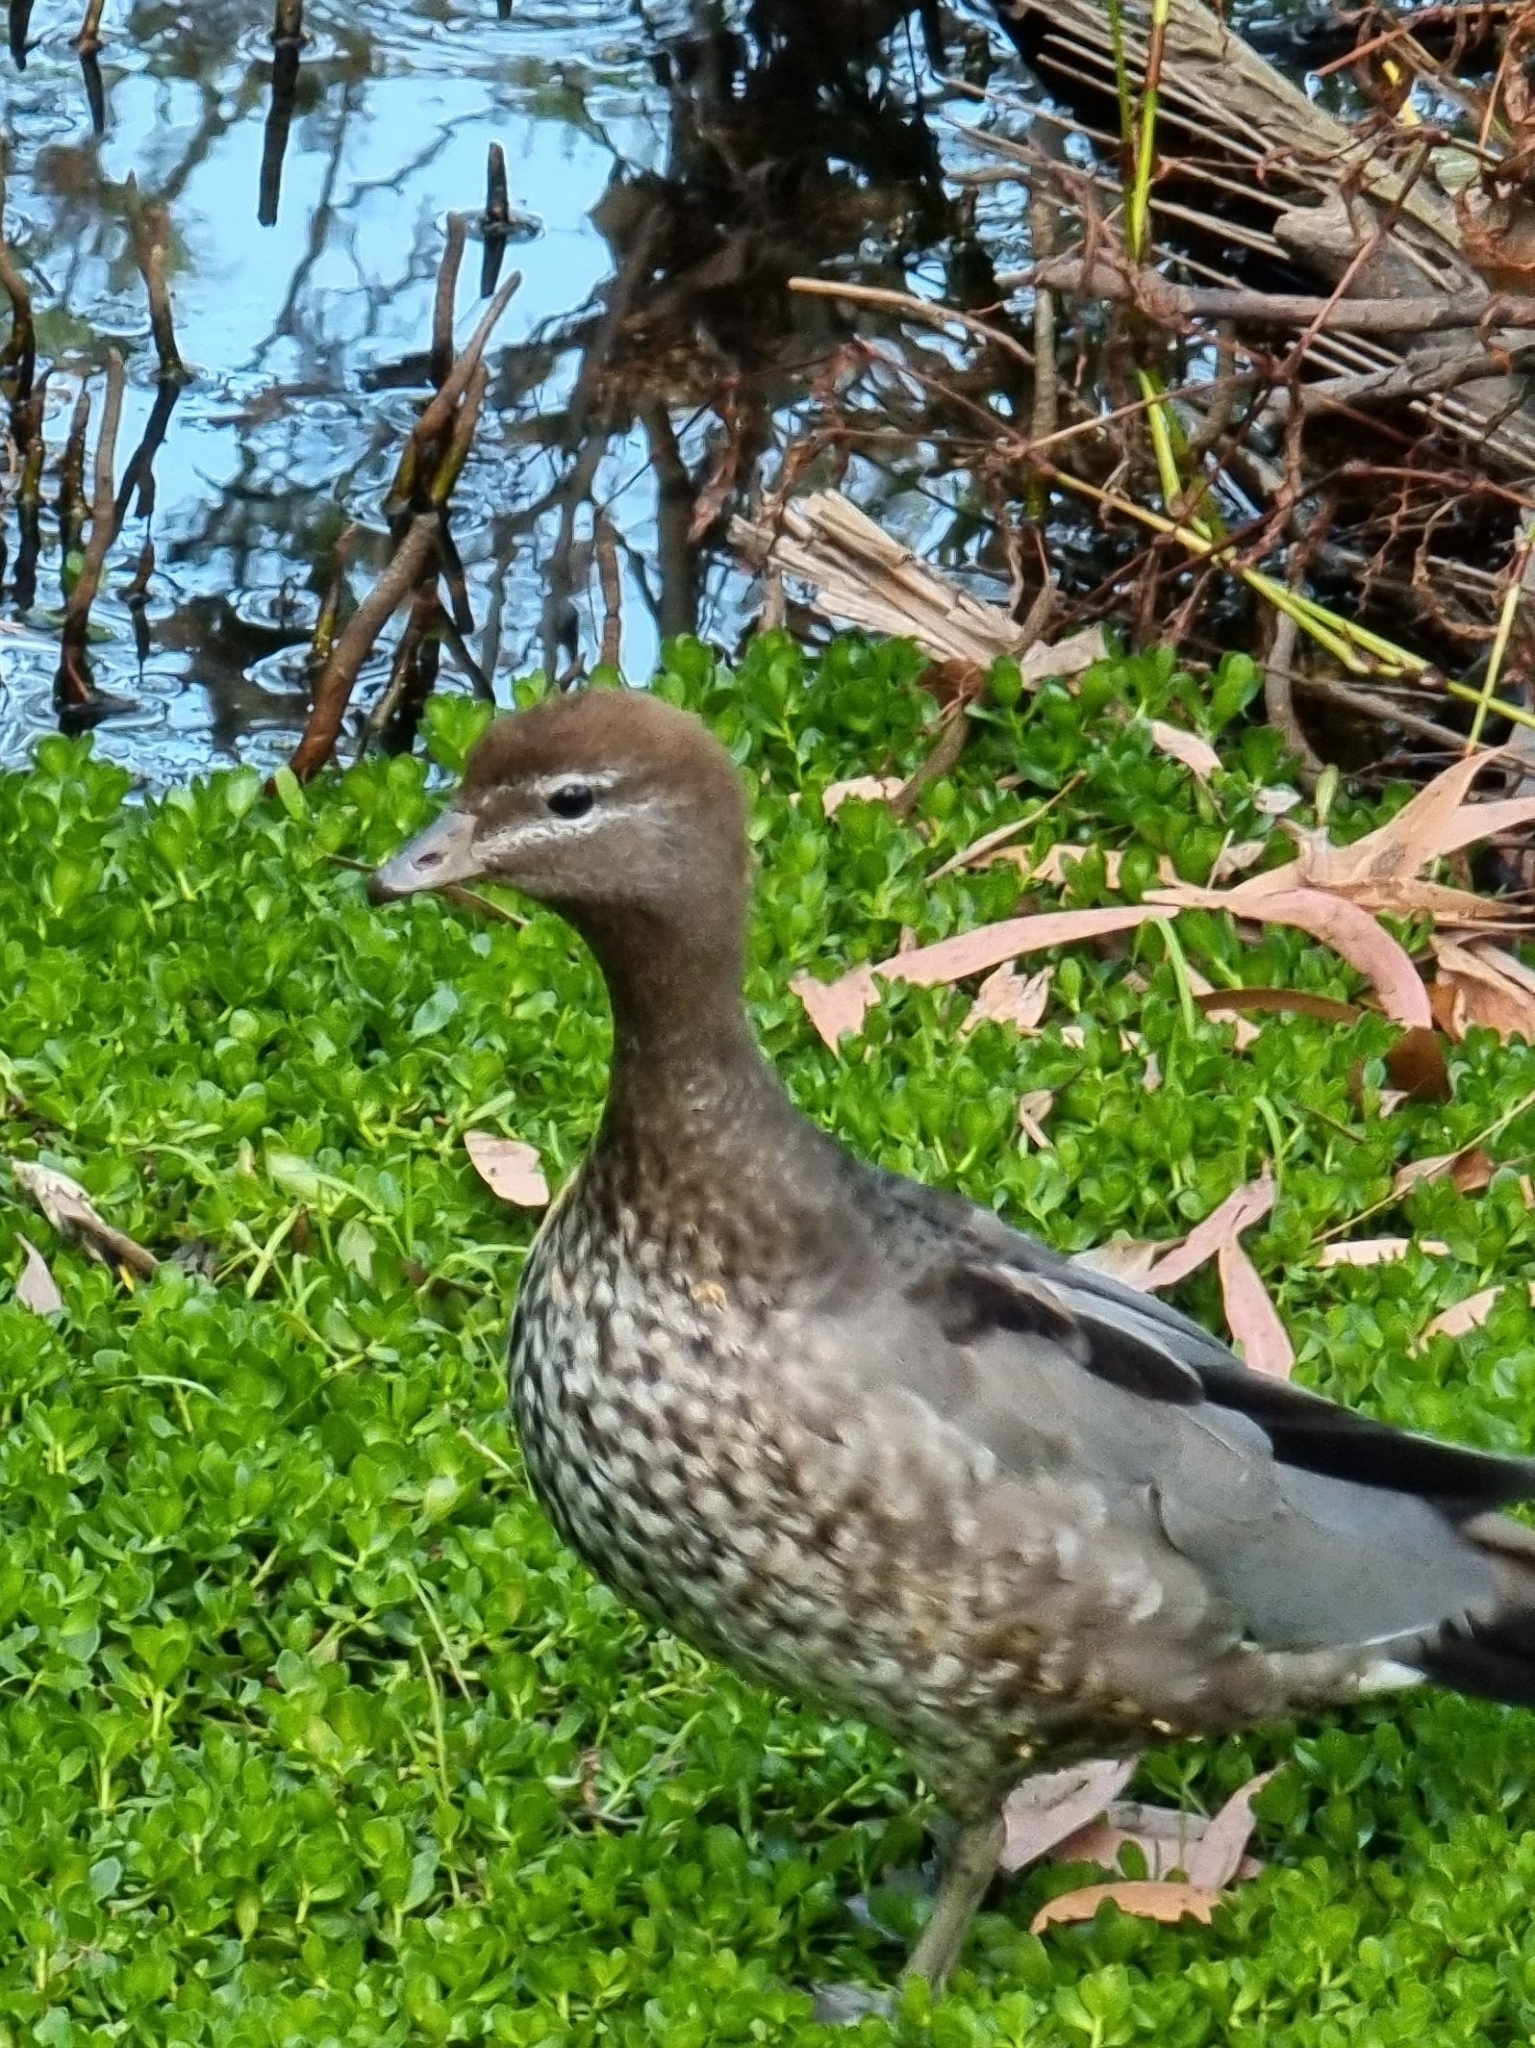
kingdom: Animalia
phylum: Chordata
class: Aves
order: Anseriformes
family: Anatidae
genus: Chenonetta
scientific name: Chenonetta jubata
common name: Maned duck
